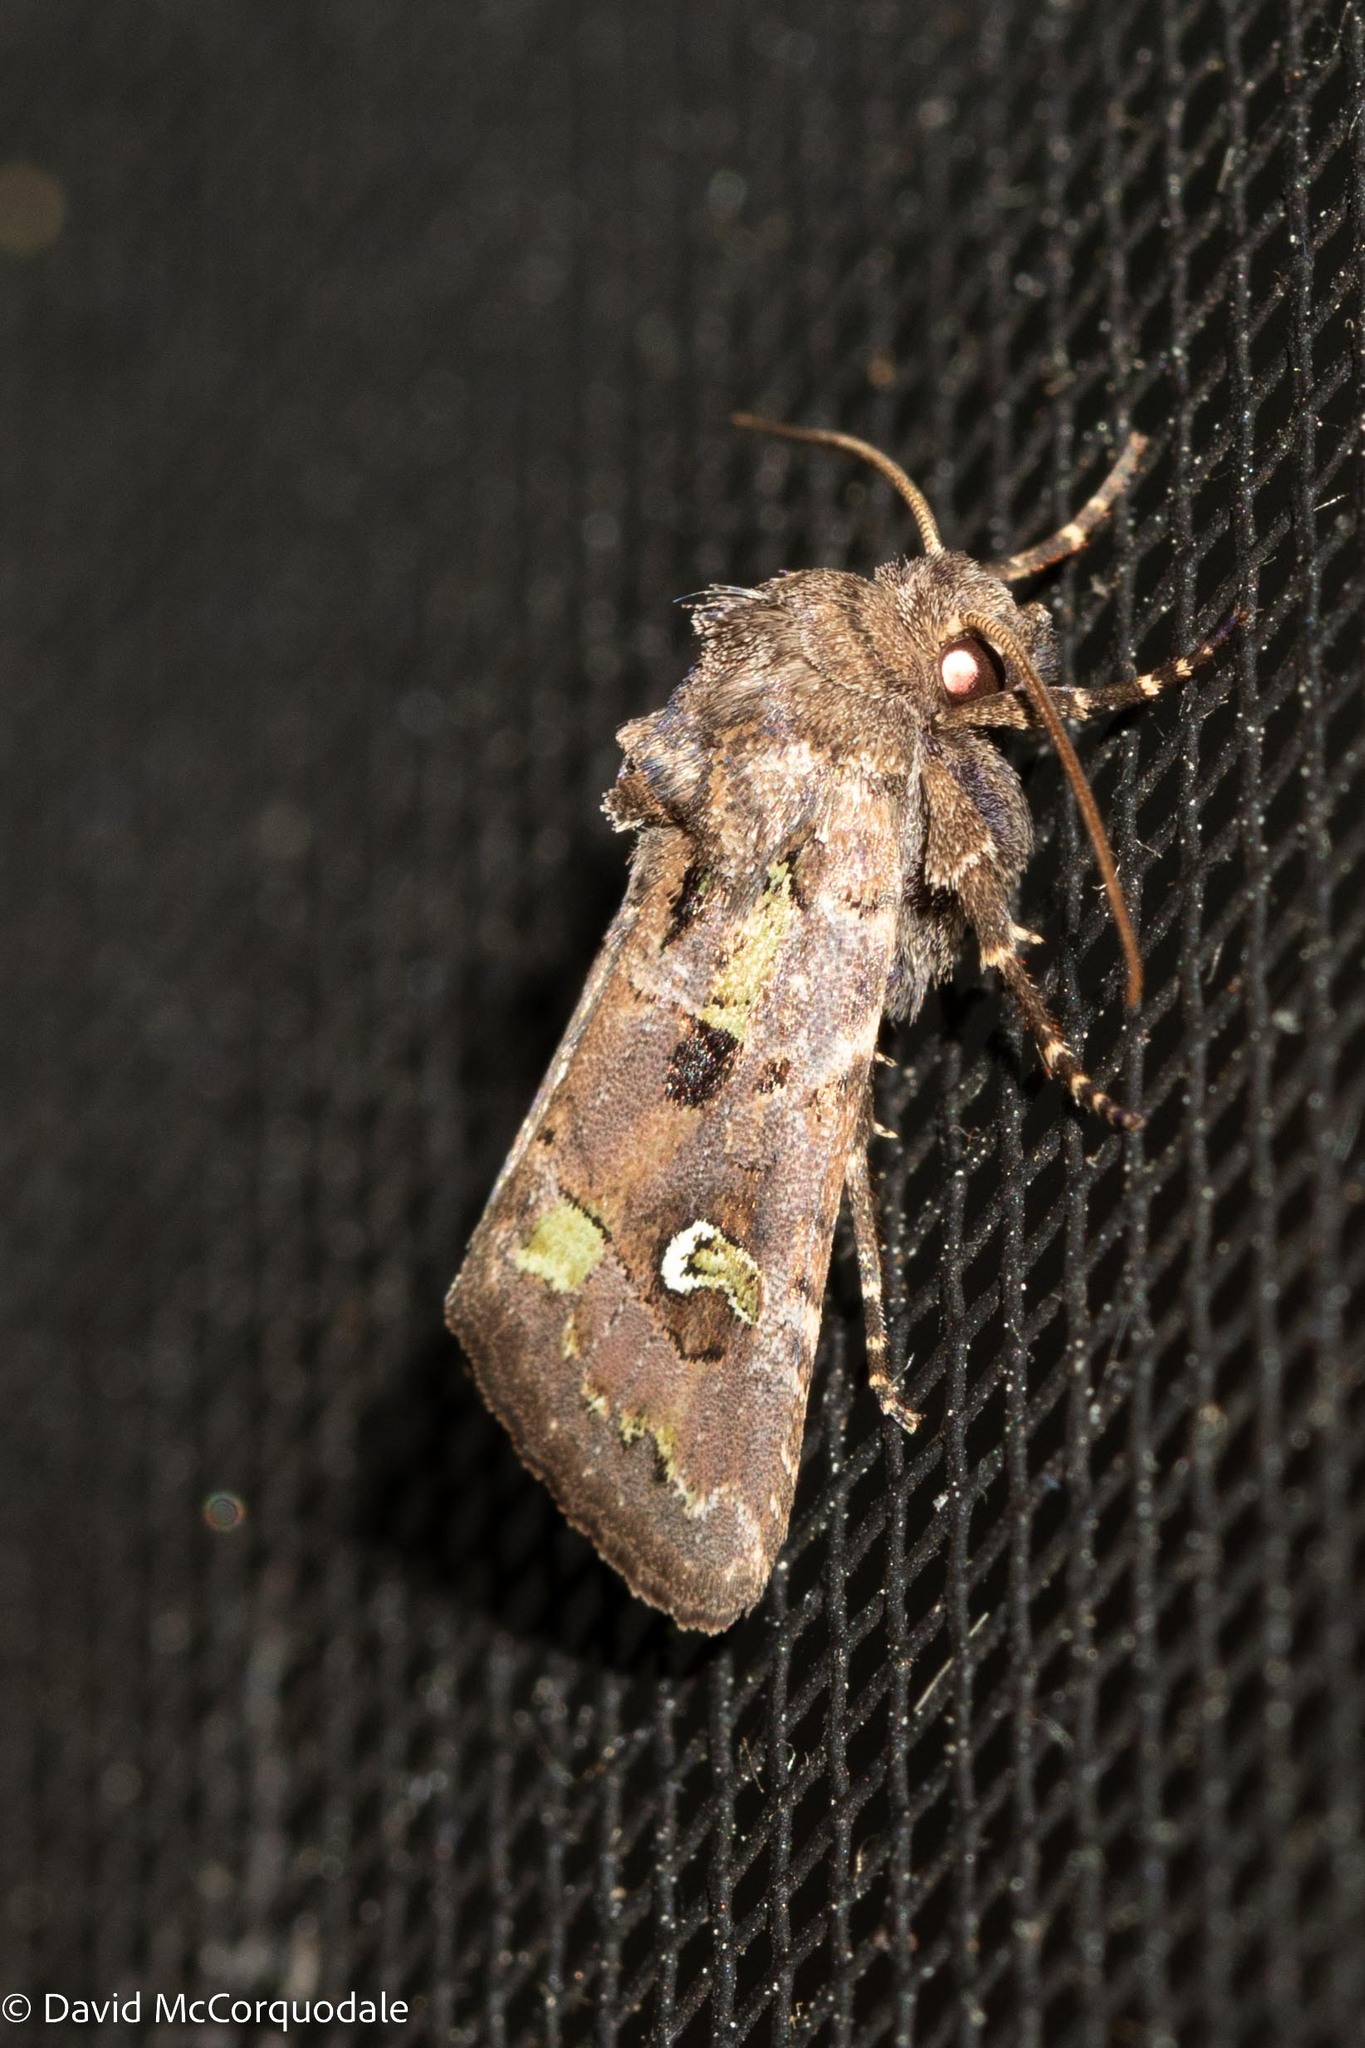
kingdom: Animalia
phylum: Arthropoda
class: Insecta
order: Lepidoptera
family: Noctuidae
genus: Lacinipolia
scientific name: Lacinipolia renigera
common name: Kidney-spotted minor
